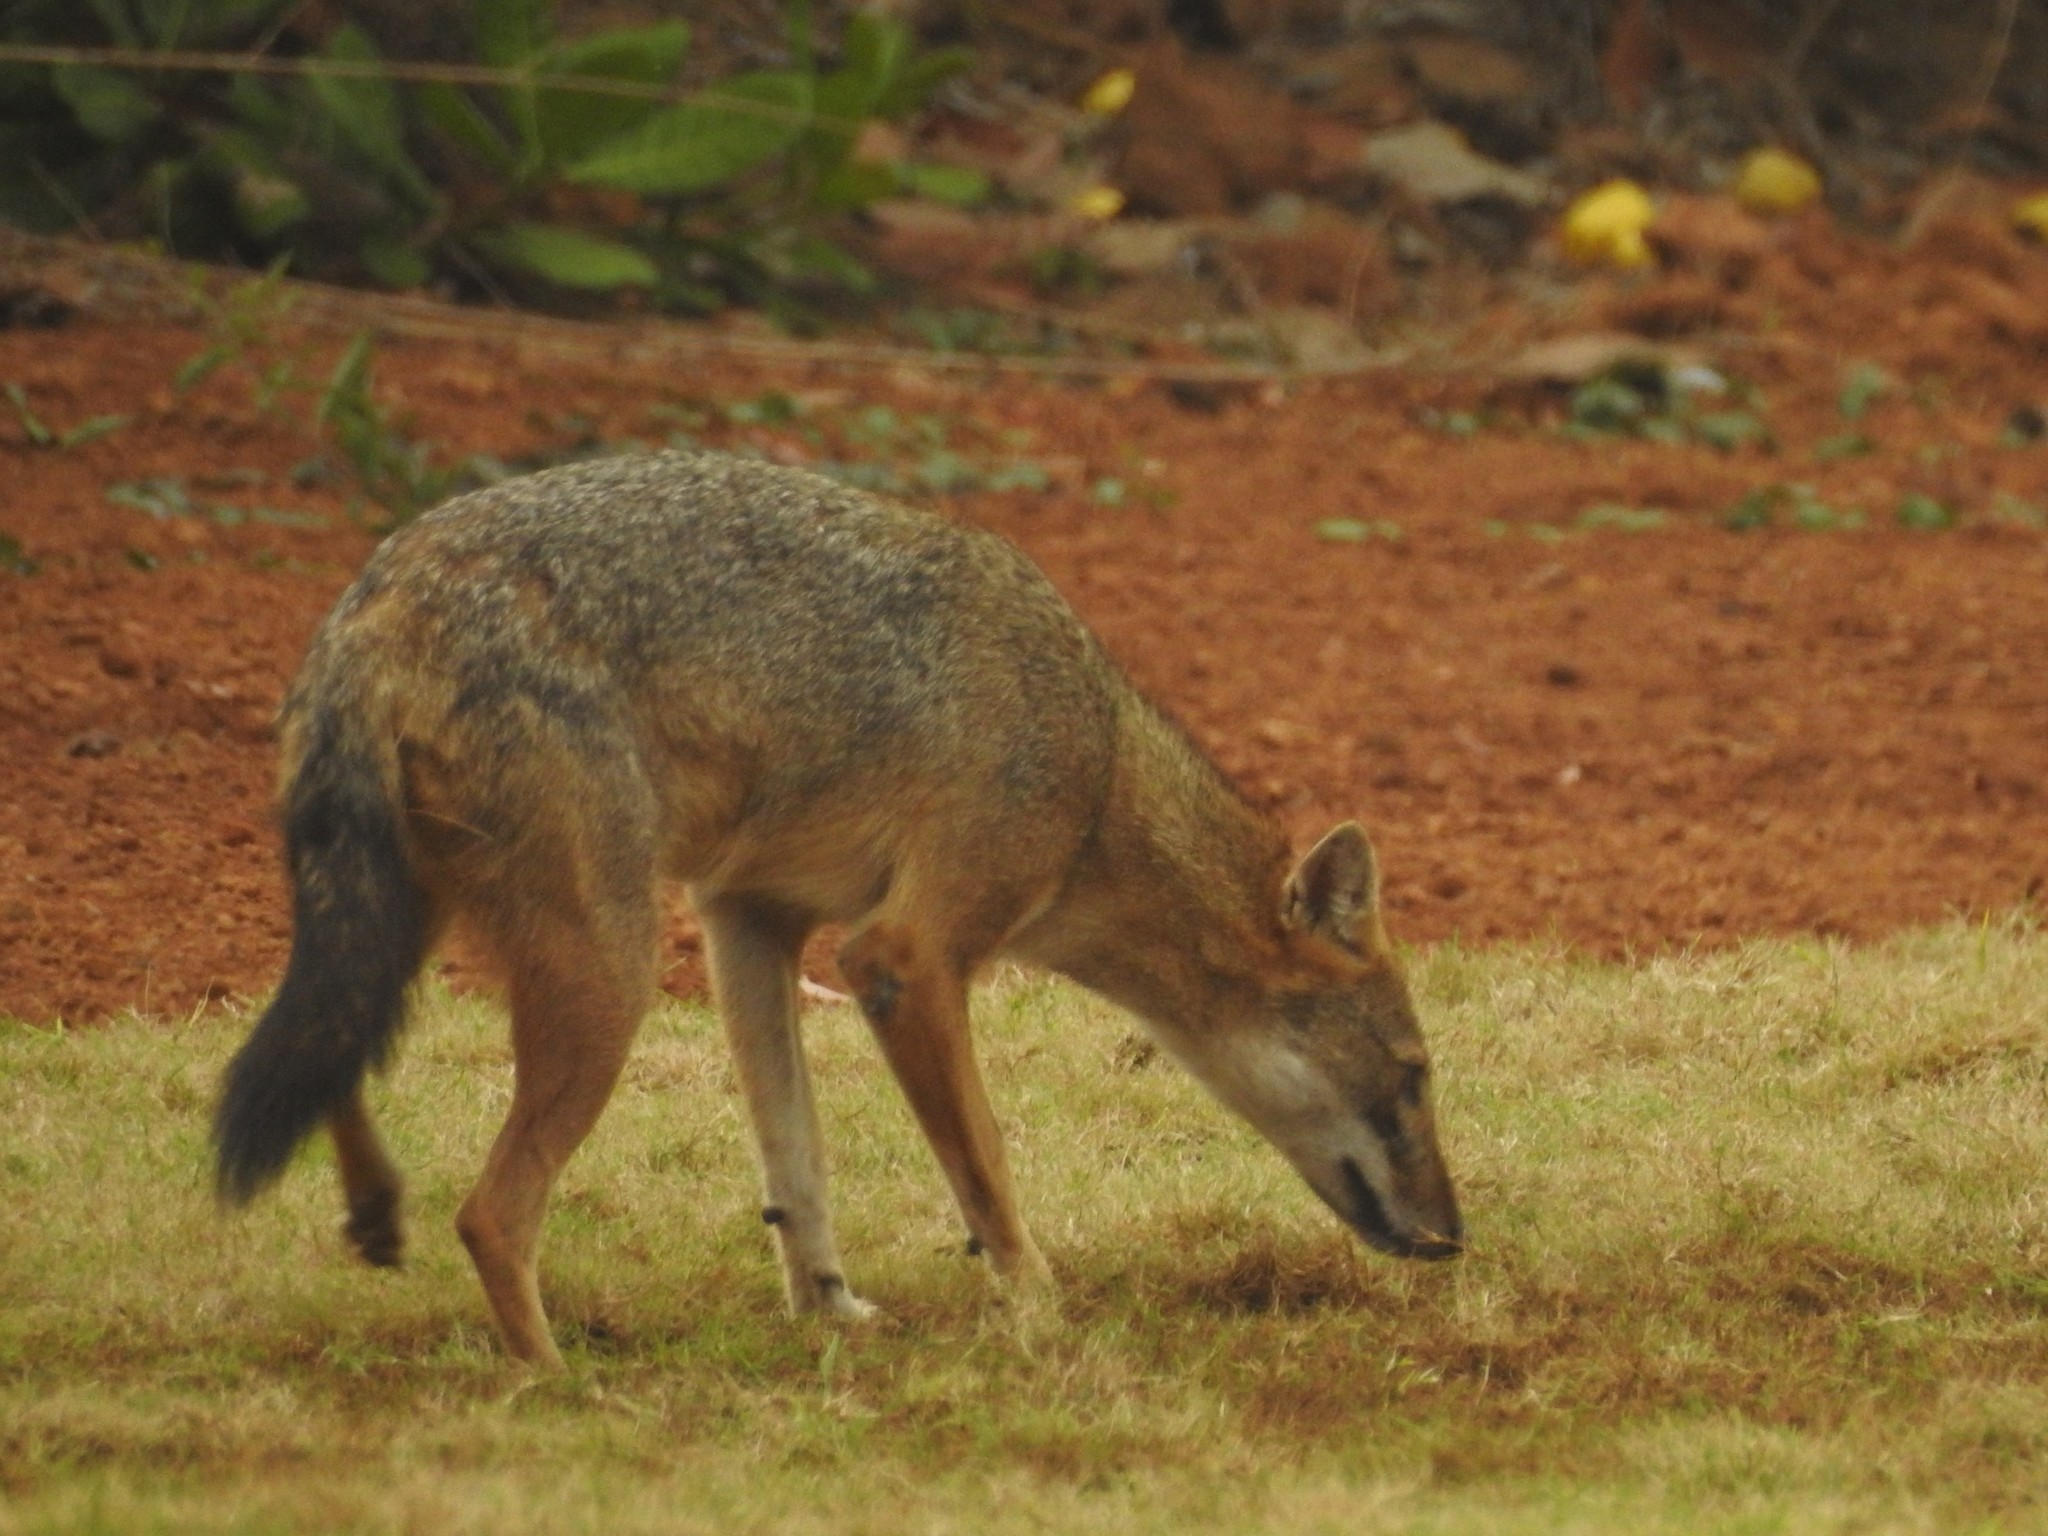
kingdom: Animalia
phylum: Chordata
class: Mammalia
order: Carnivora
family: Canidae
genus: Canis
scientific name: Canis aureus
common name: Golden jackal
